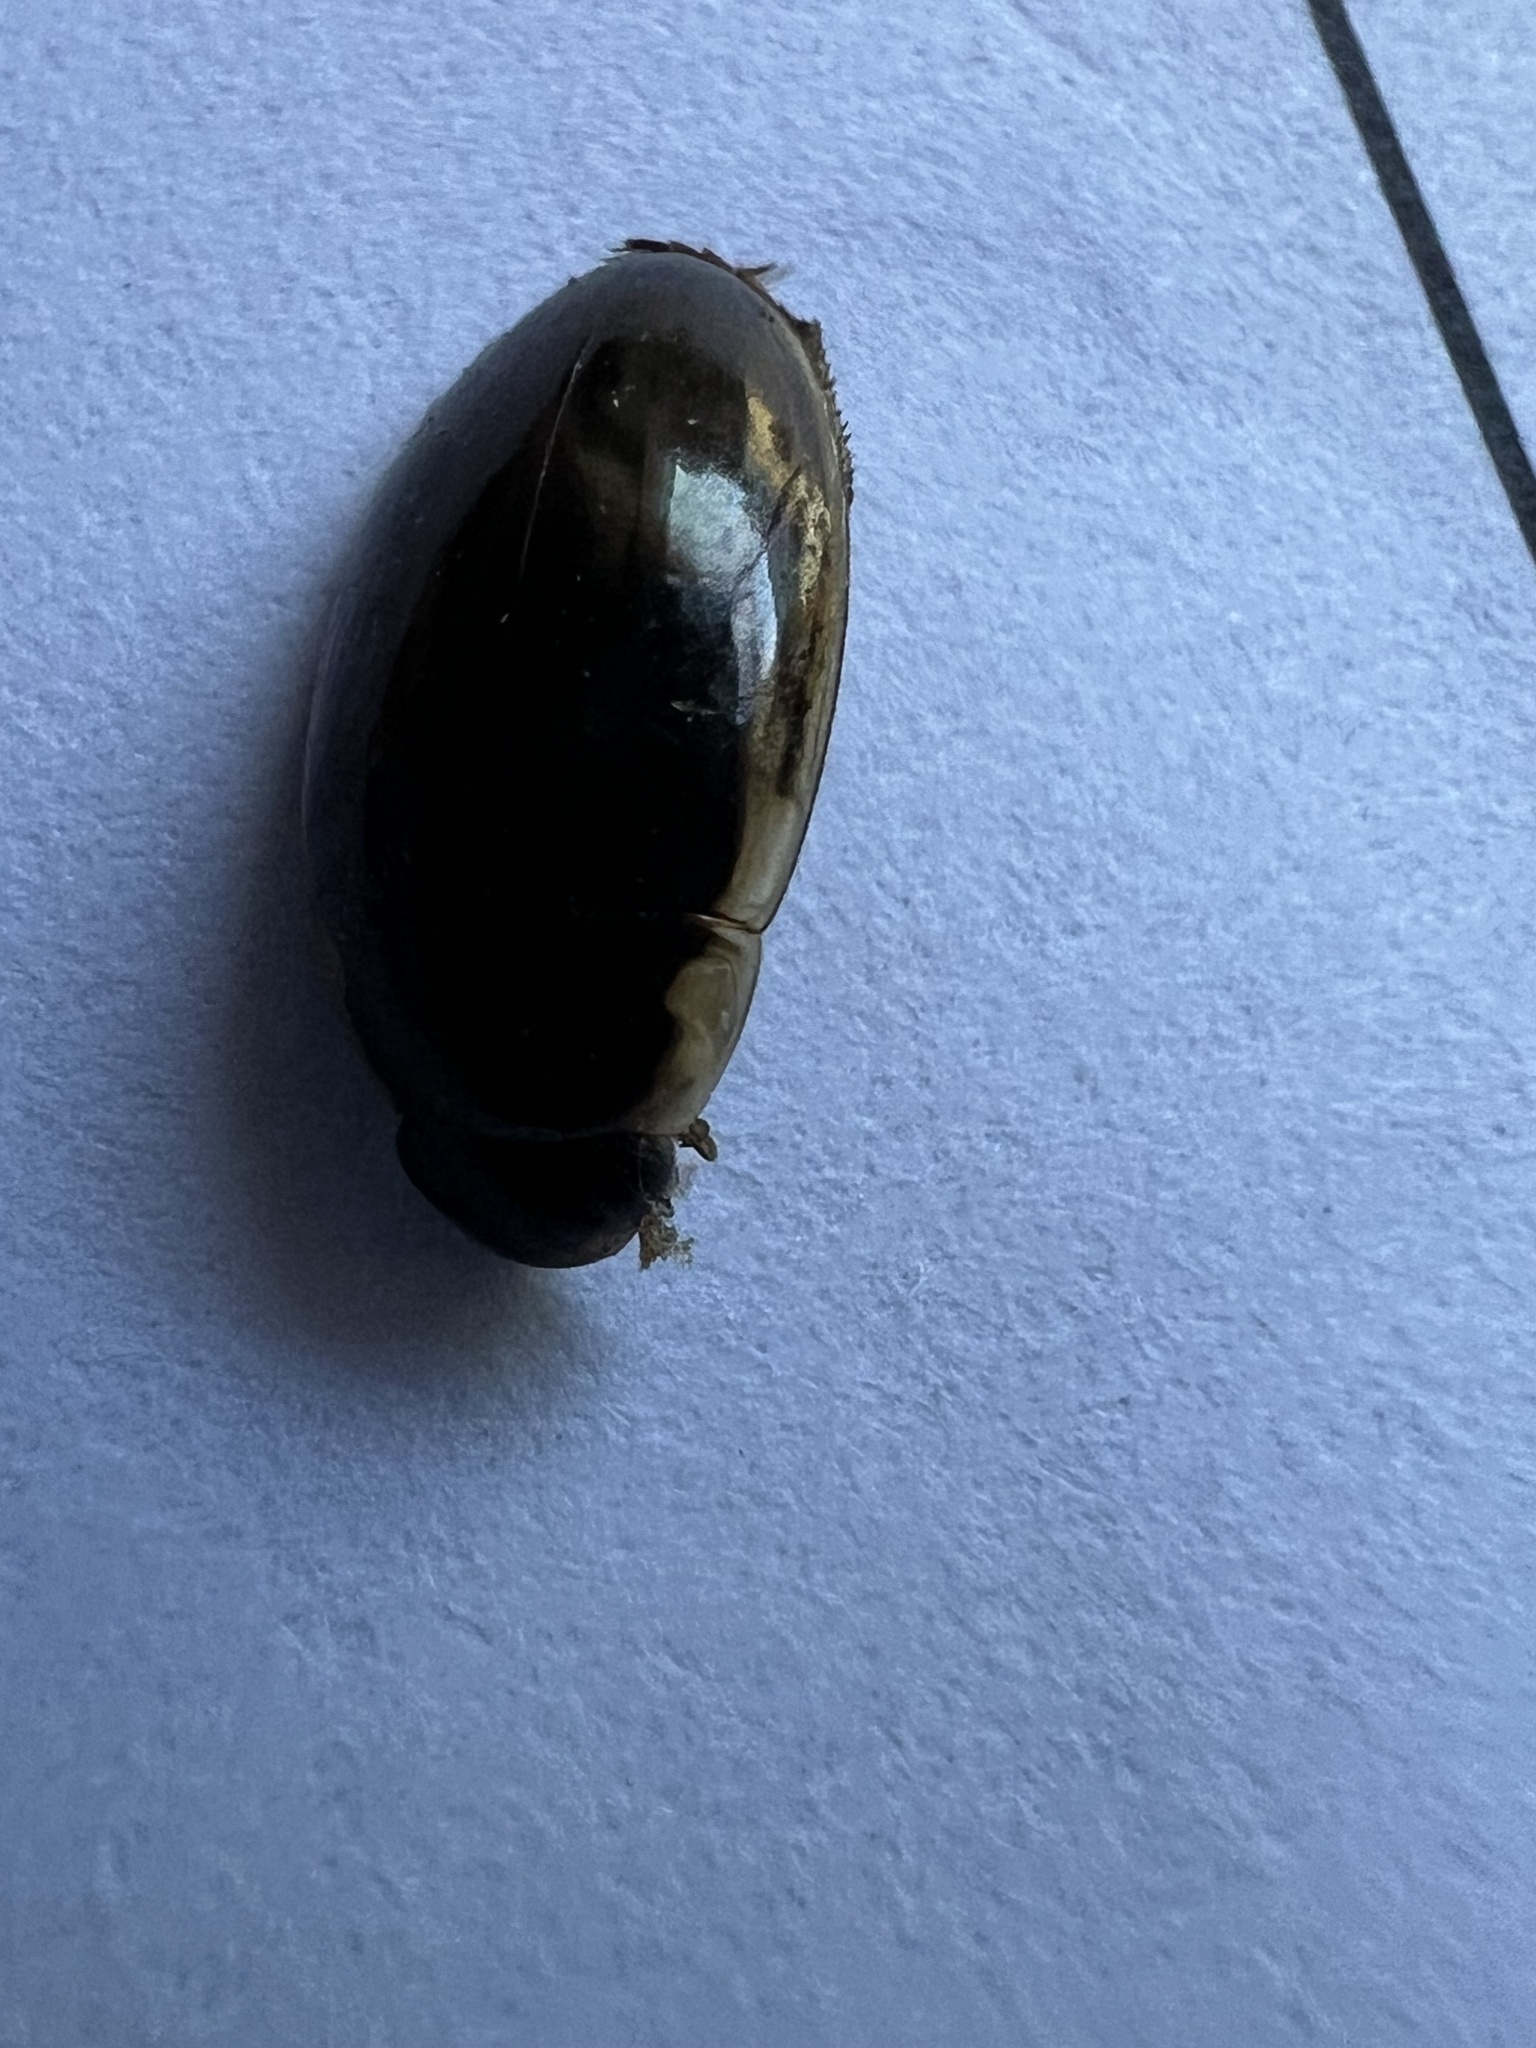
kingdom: Animalia
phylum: Arthropoda
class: Insecta
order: Coleoptera
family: Hydrophilidae
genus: Tropisternus
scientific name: Tropisternus lateralis
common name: Lateral-banded water scavenger beetle
